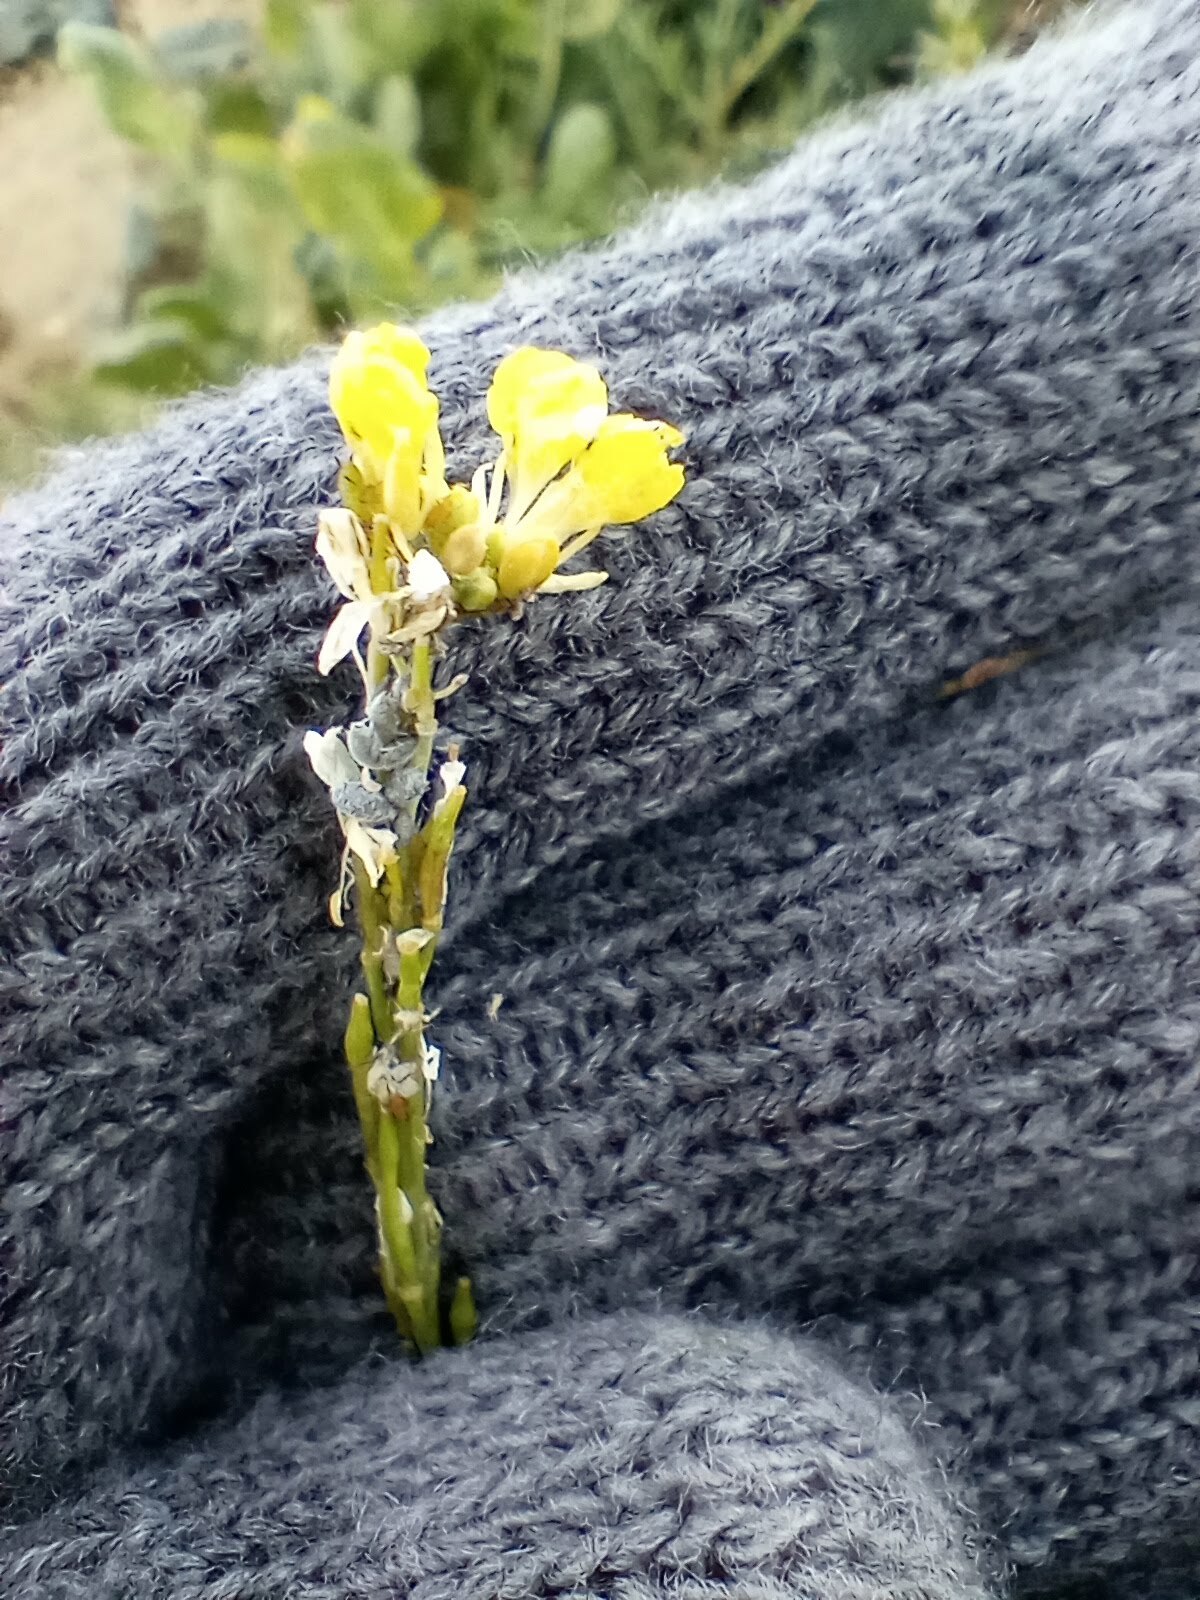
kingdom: Animalia
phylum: Arthropoda
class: Insecta
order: Hemiptera
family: Aphididae
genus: Brevicoryne
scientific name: Brevicoryne brassicae
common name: Cabbage aphid
